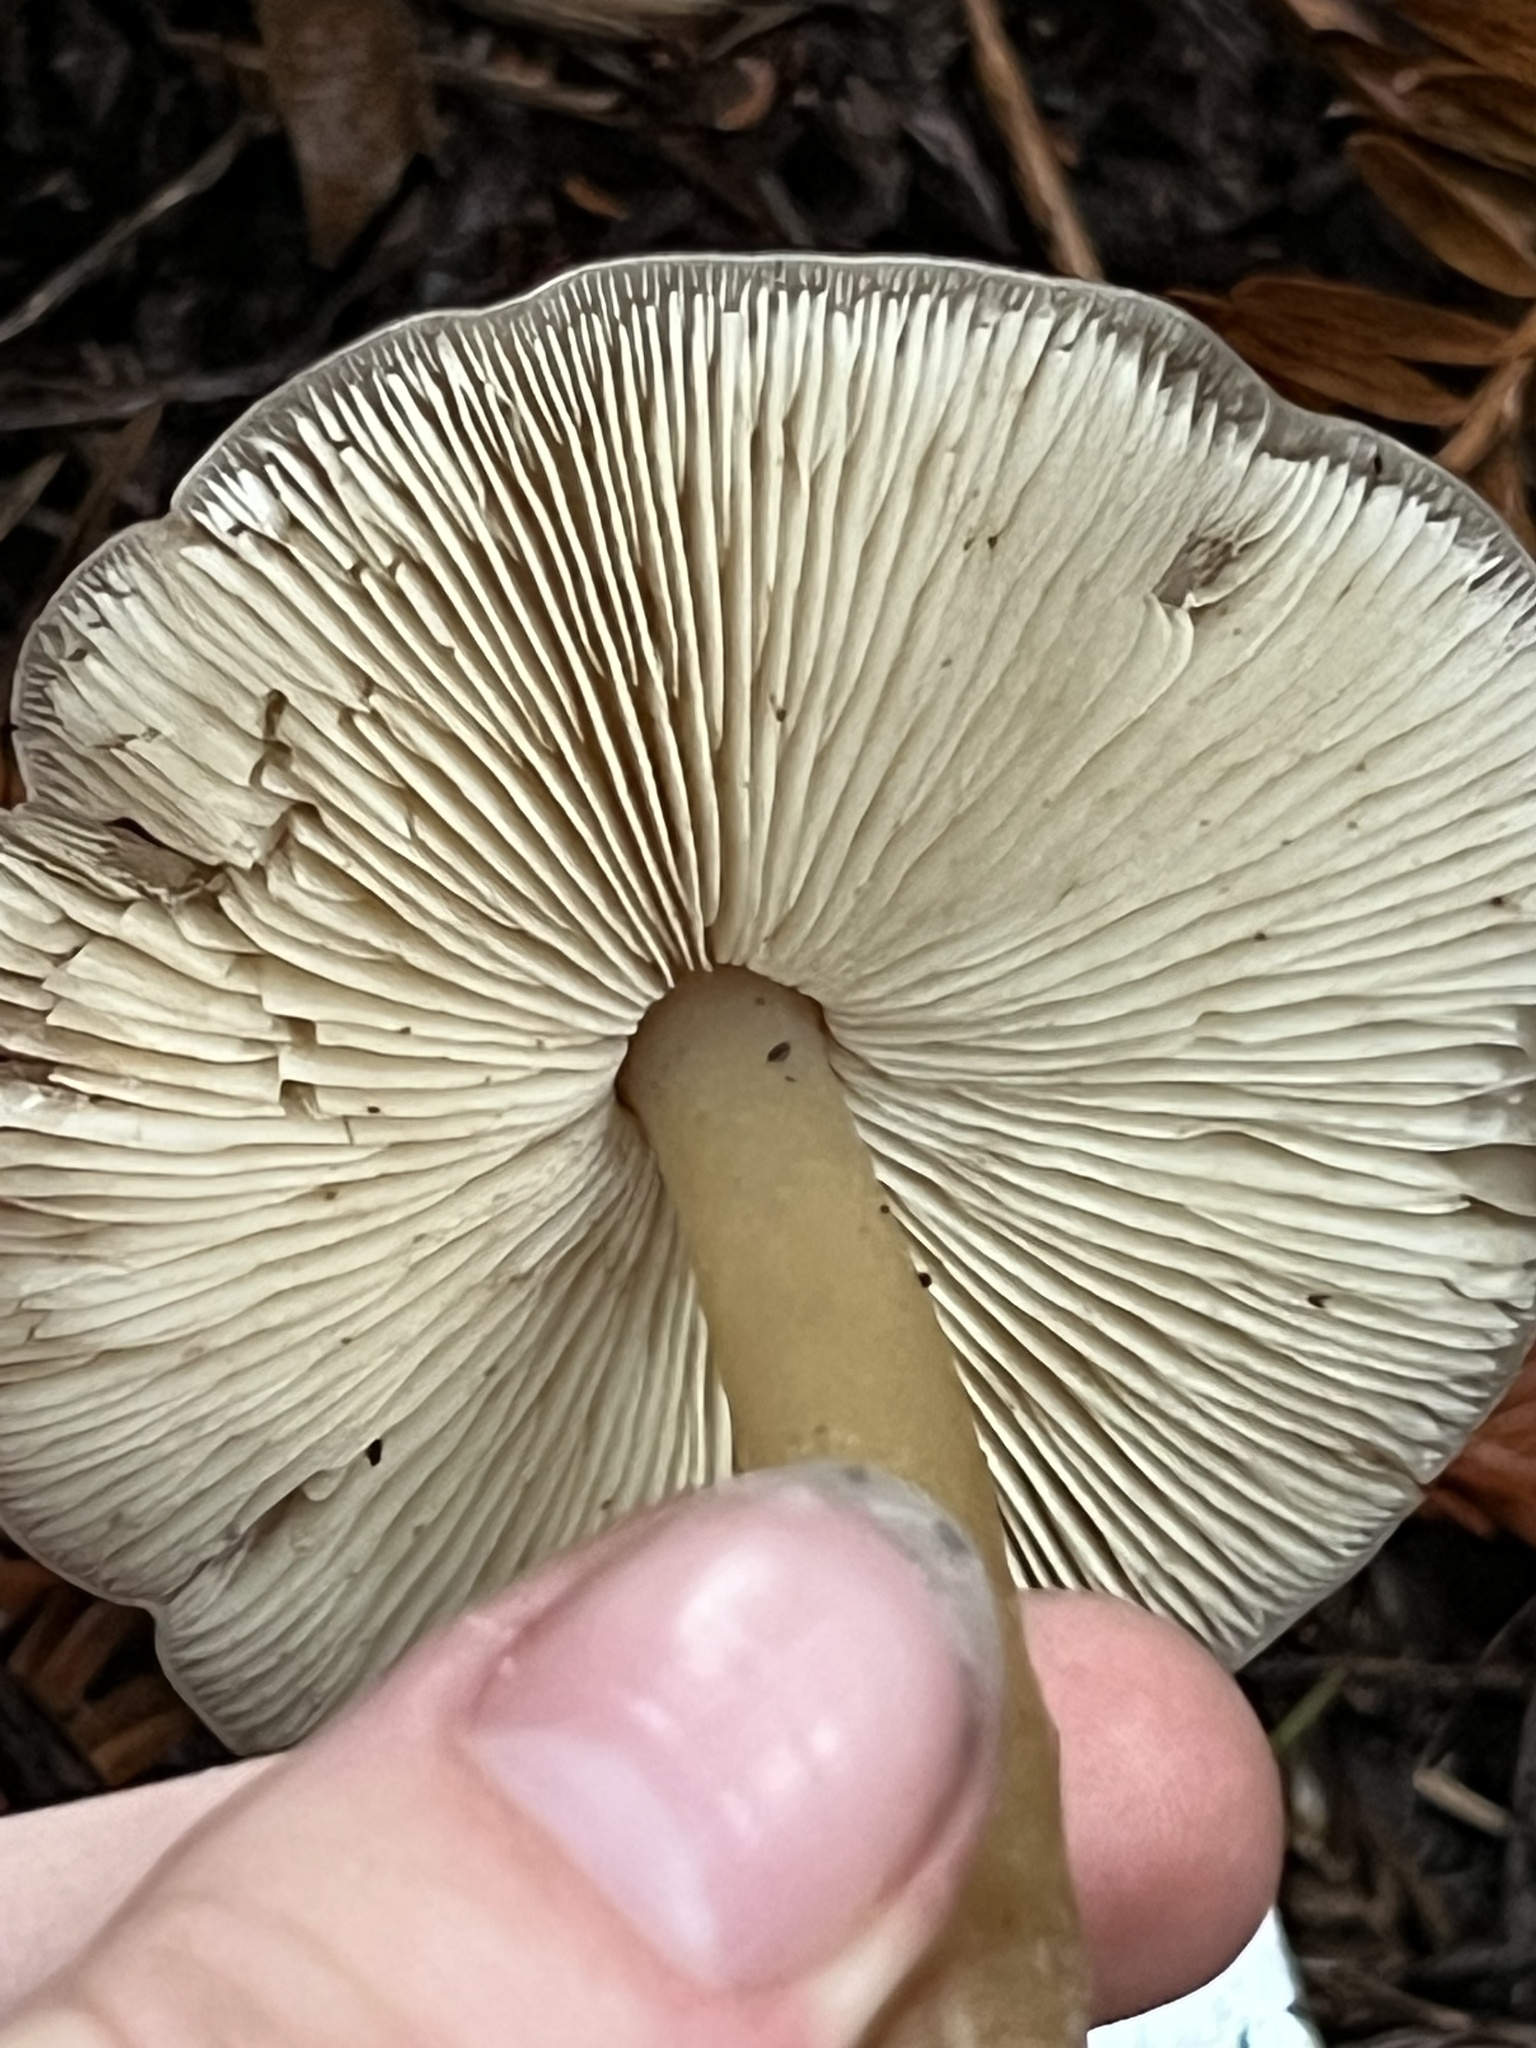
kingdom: Fungi
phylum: Basidiomycota
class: Agaricomycetes
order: Agaricales
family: Tricholomataceae
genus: Caulorhiza
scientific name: Caulorhiza umbonata
